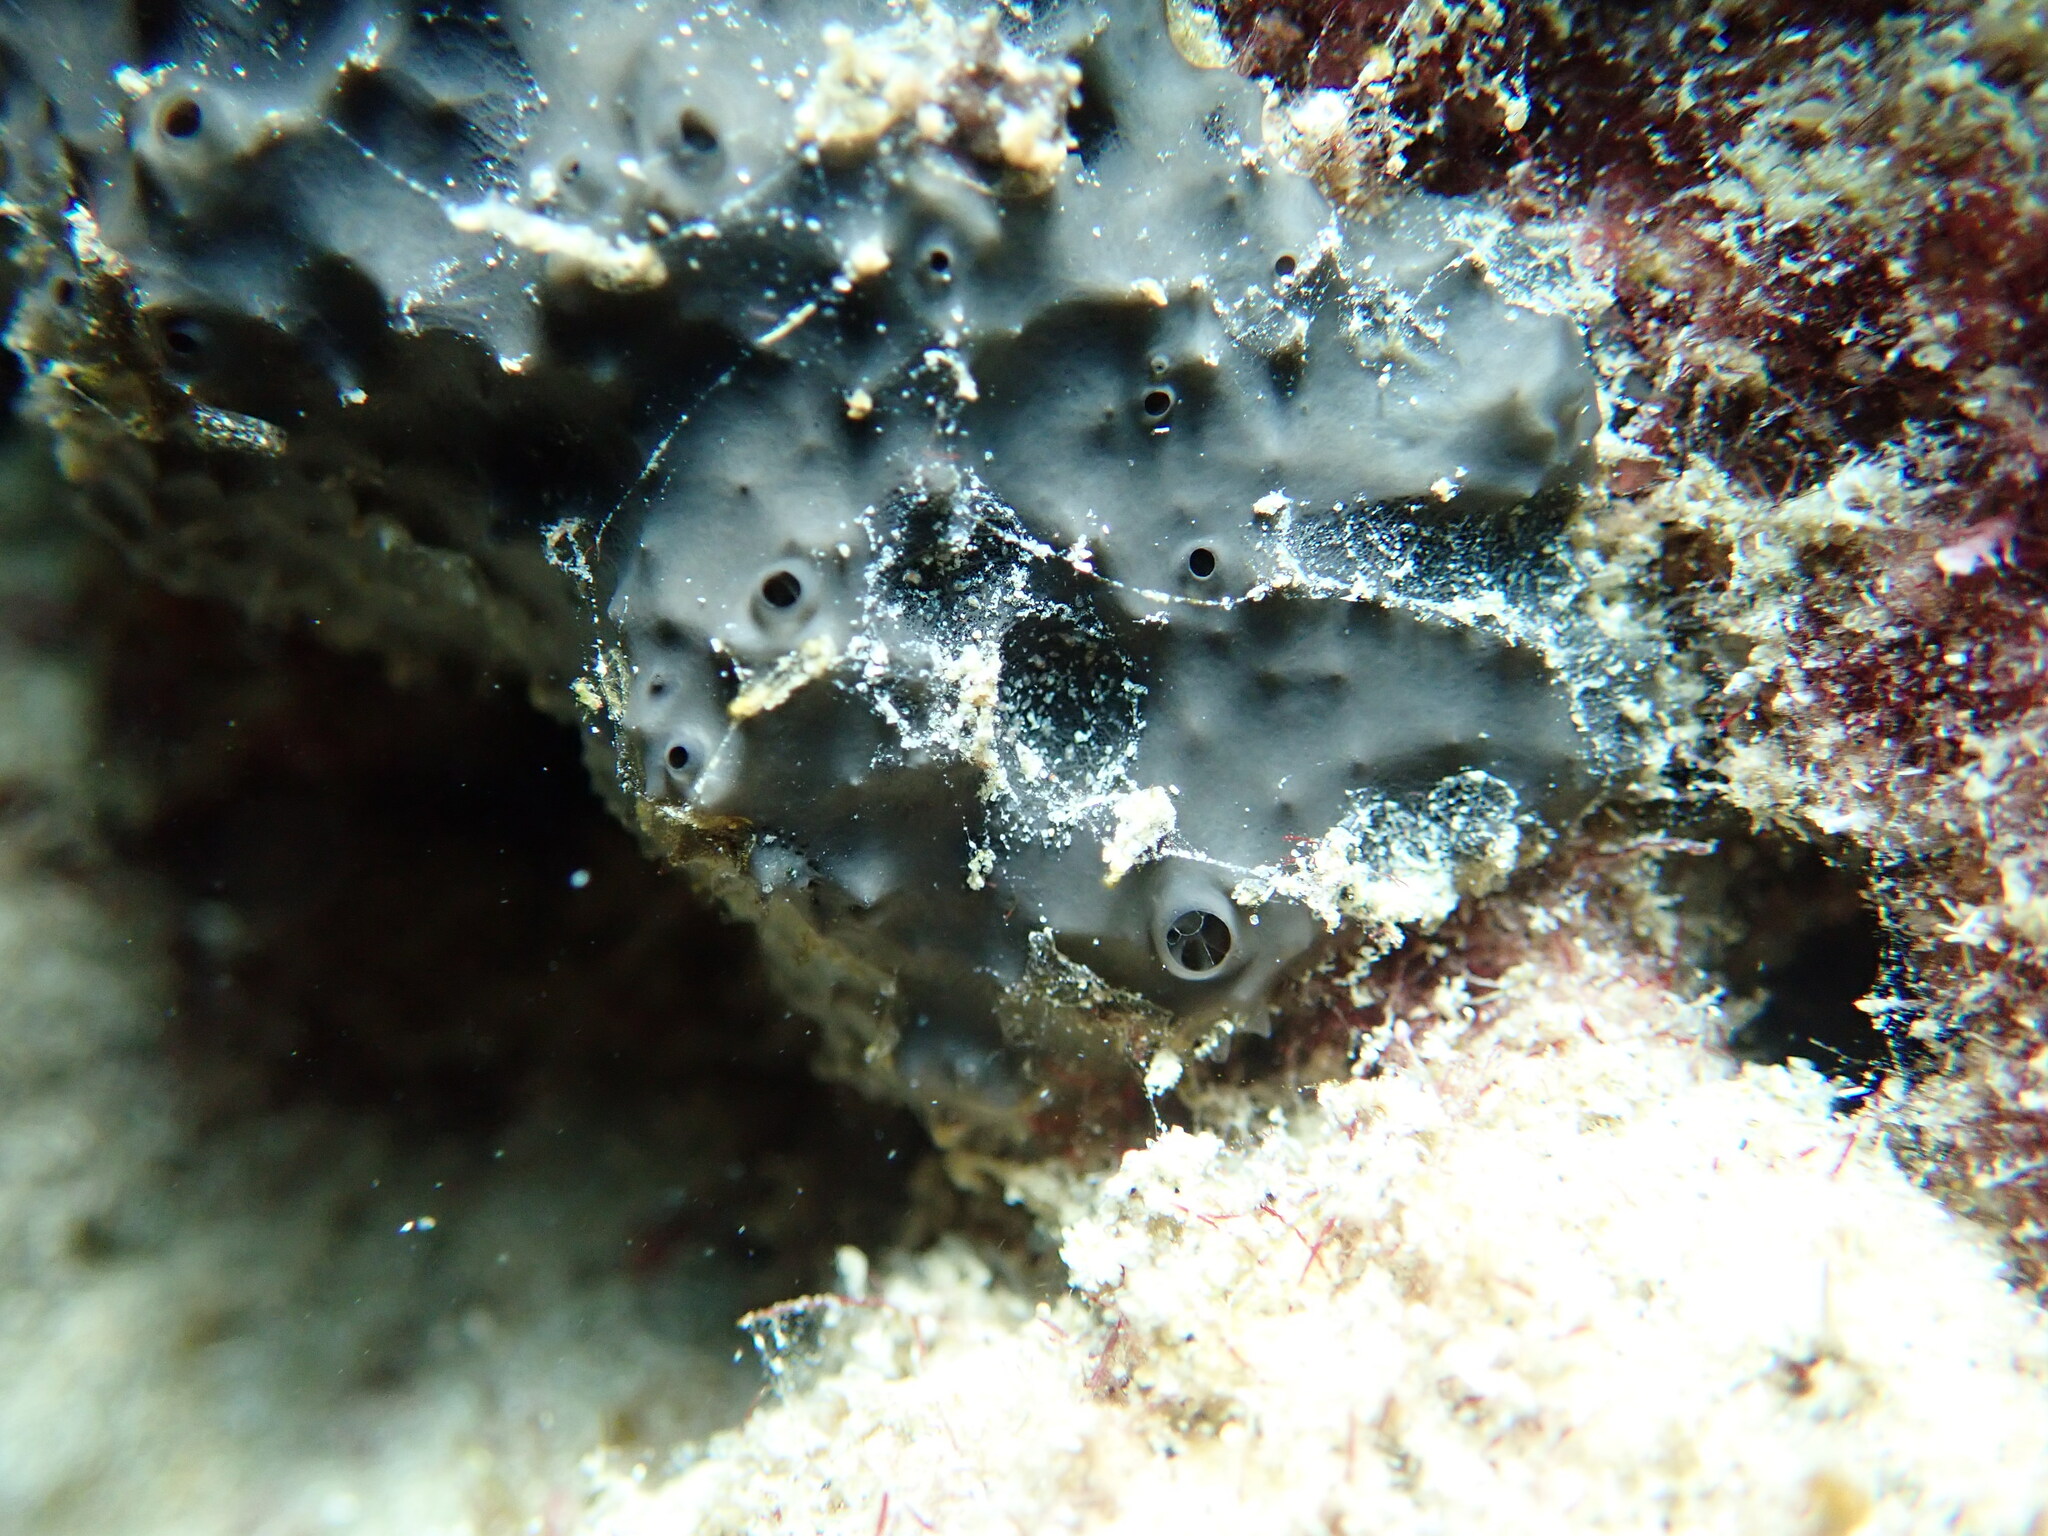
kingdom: Animalia
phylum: Porifera
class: Demospongiae
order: Dictyoceratida
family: Irciniidae
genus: Sarcotragus
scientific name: Sarcotragus spinosulus
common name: Black leather sponge
